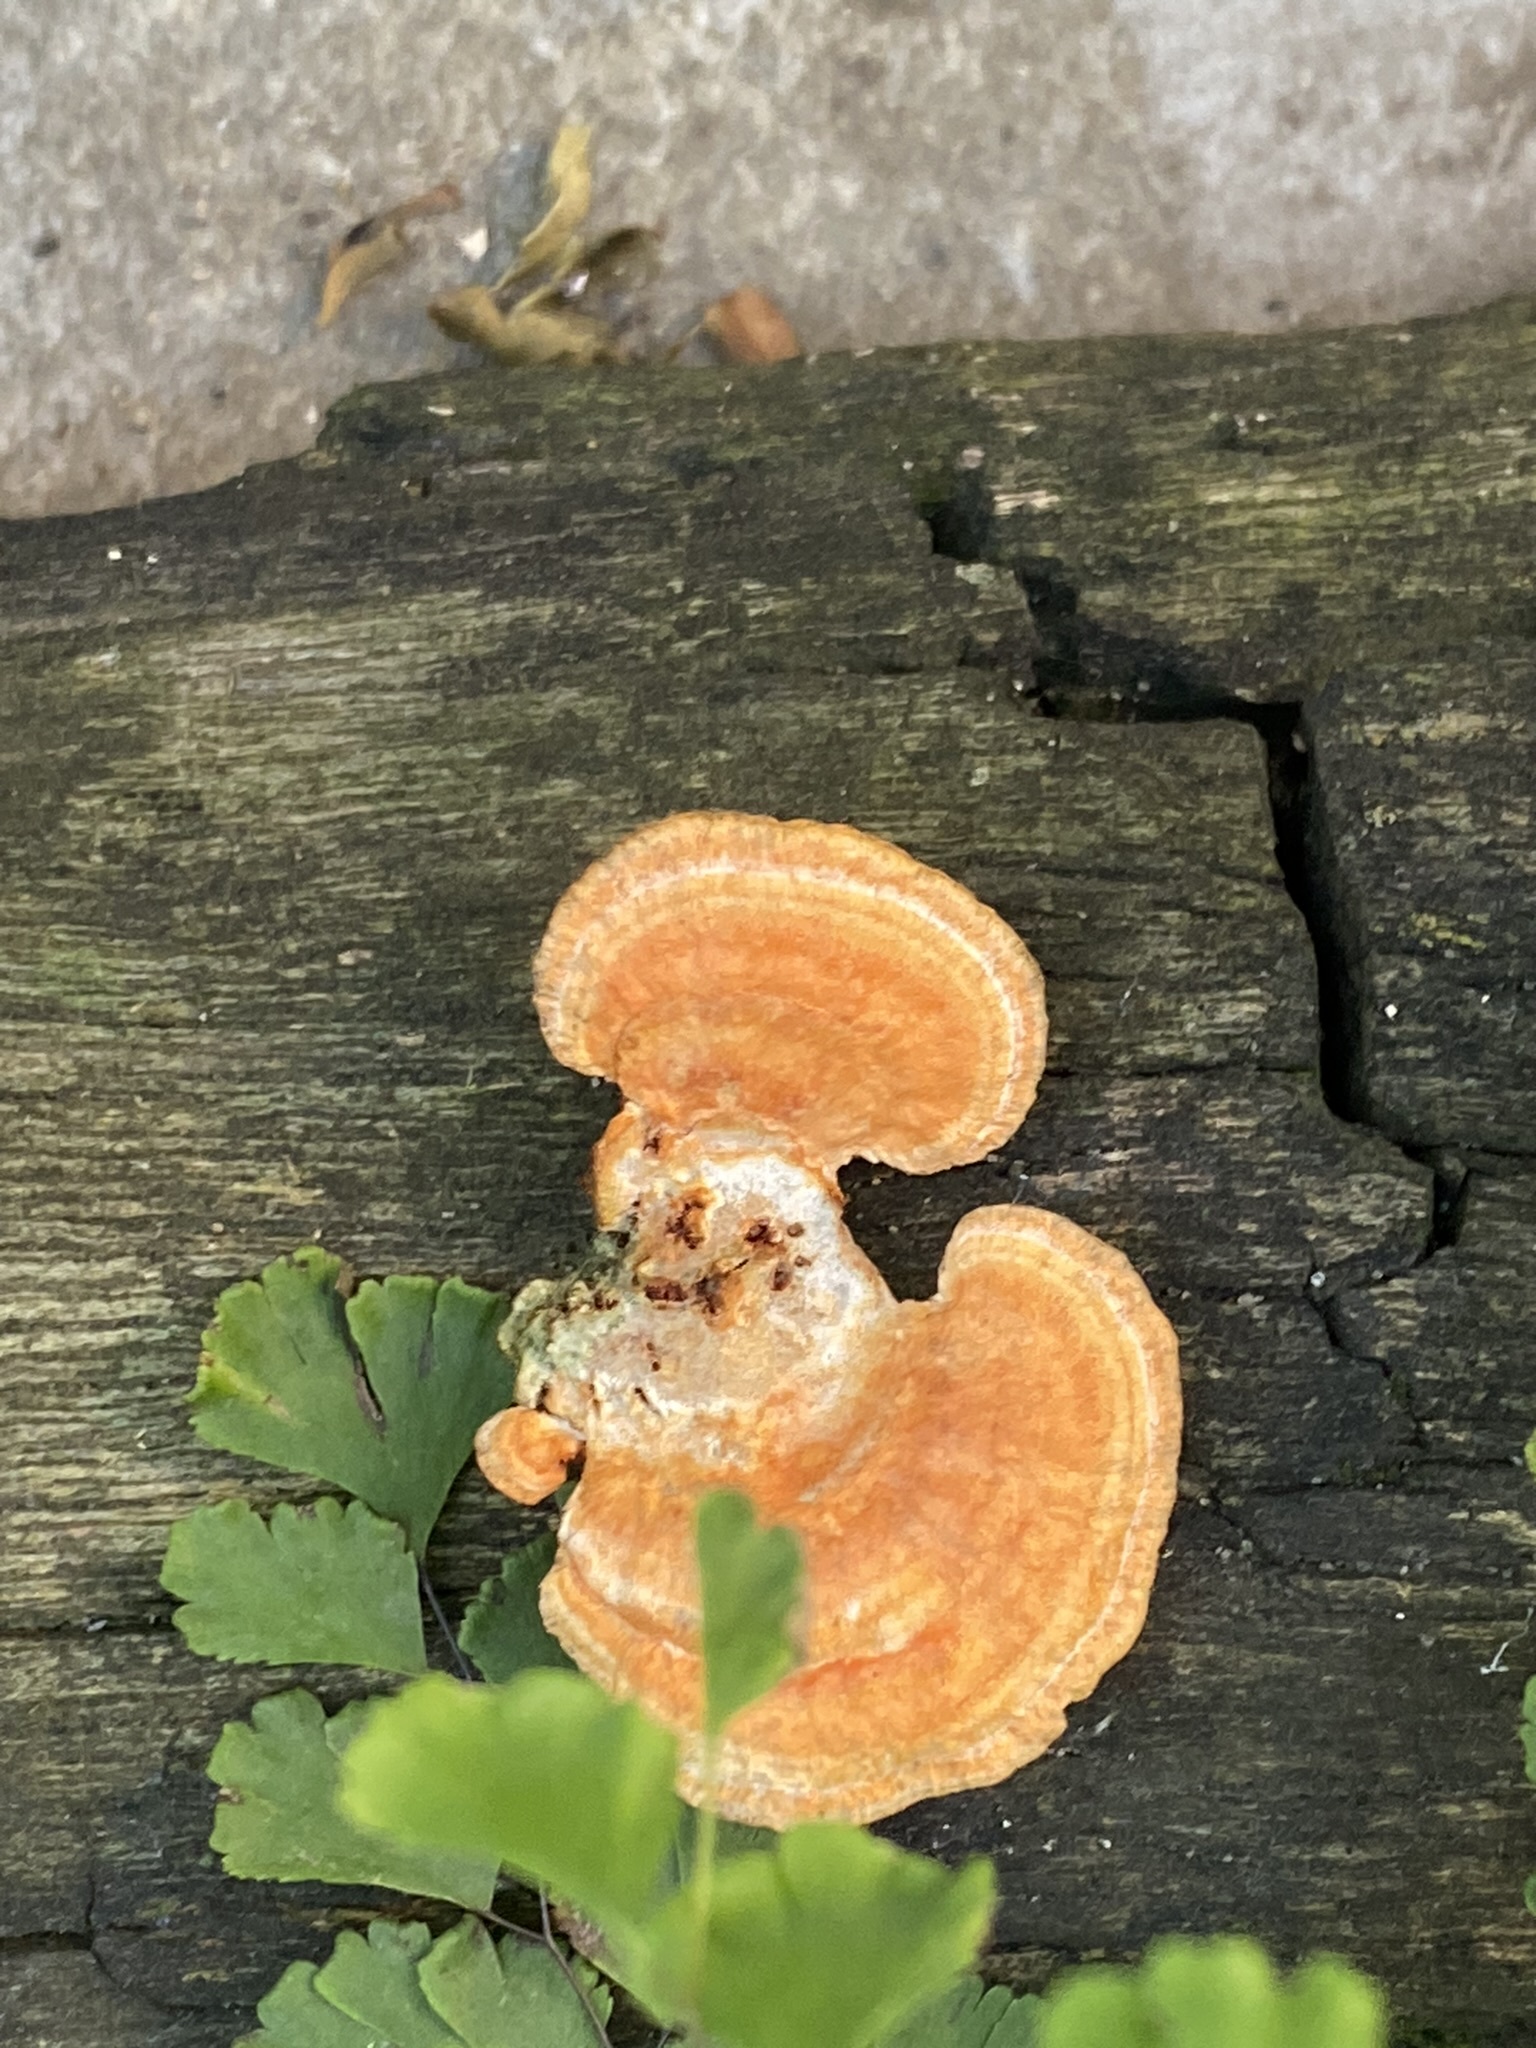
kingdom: Fungi
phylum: Basidiomycota
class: Agaricomycetes
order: Polyporales
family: Polyporaceae
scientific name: Polyporaceae
